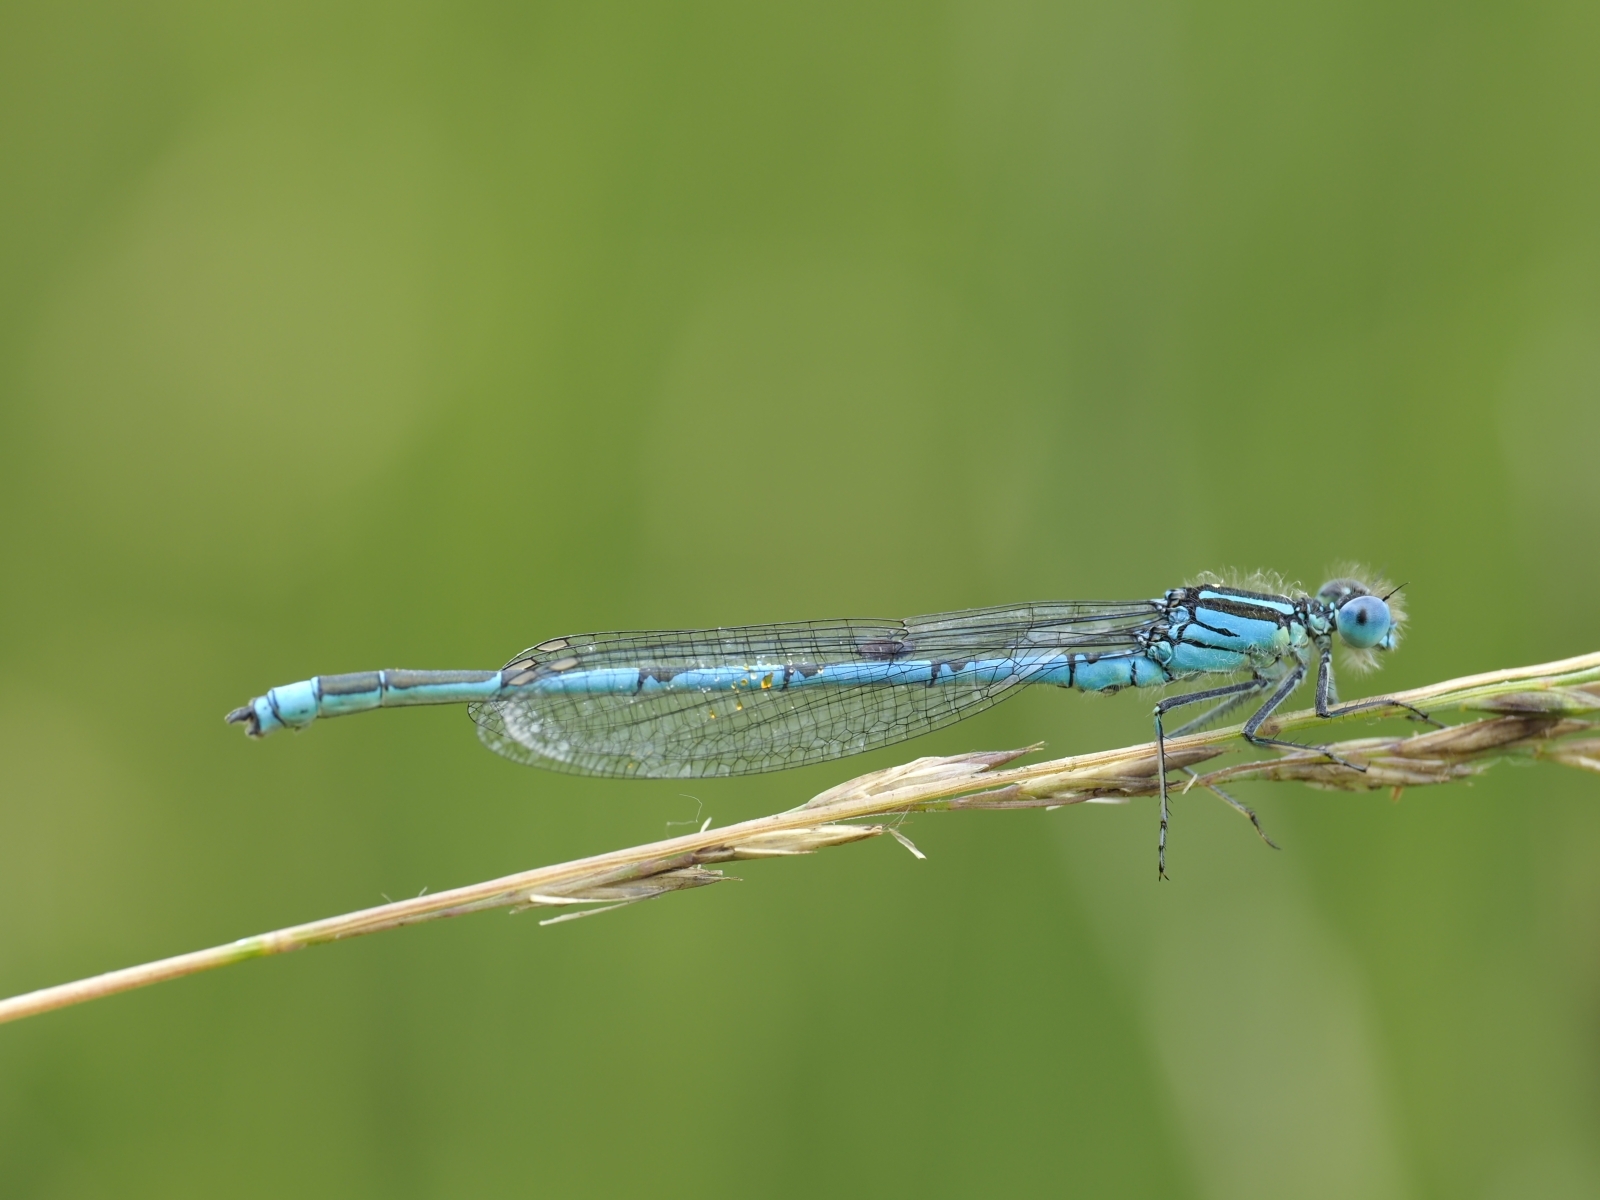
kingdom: Animalia
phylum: Arthropoda
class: Insecta
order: Odonata
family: Coenagrionidae
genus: Erythromma
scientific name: Erythromma lindenii
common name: Blue-eye
